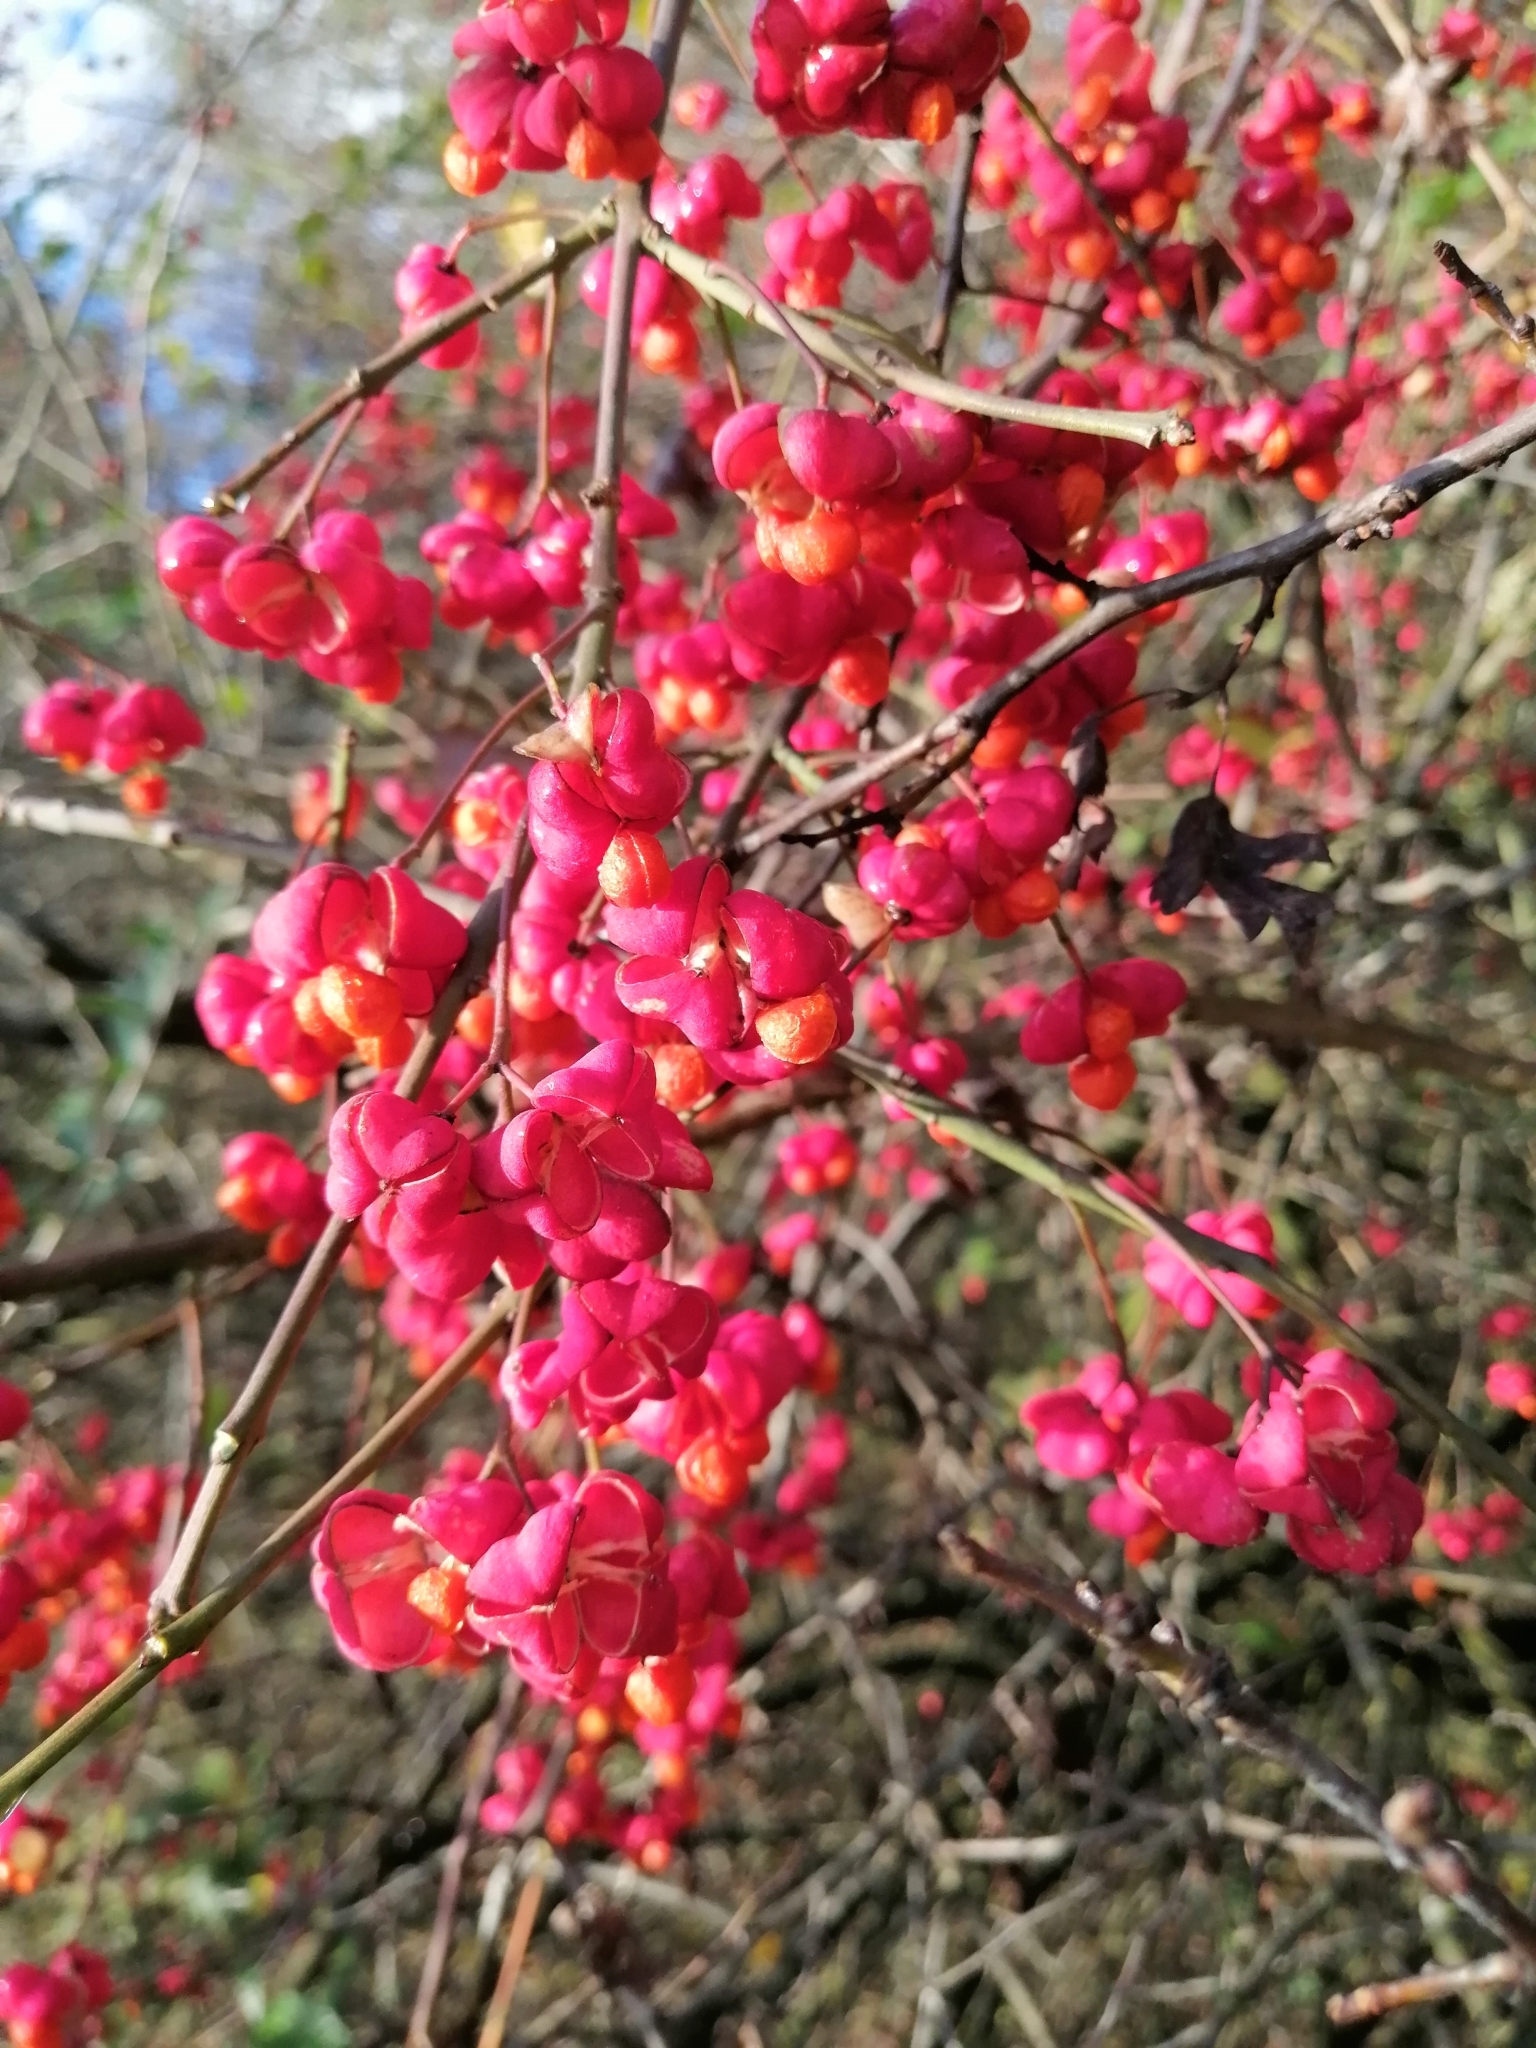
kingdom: Plantae
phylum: Tracheophyta
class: Magnoliopsida
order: Celastrales
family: Celastraceae
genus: Euonymus
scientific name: Euonymus europaeus
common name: Spindle
